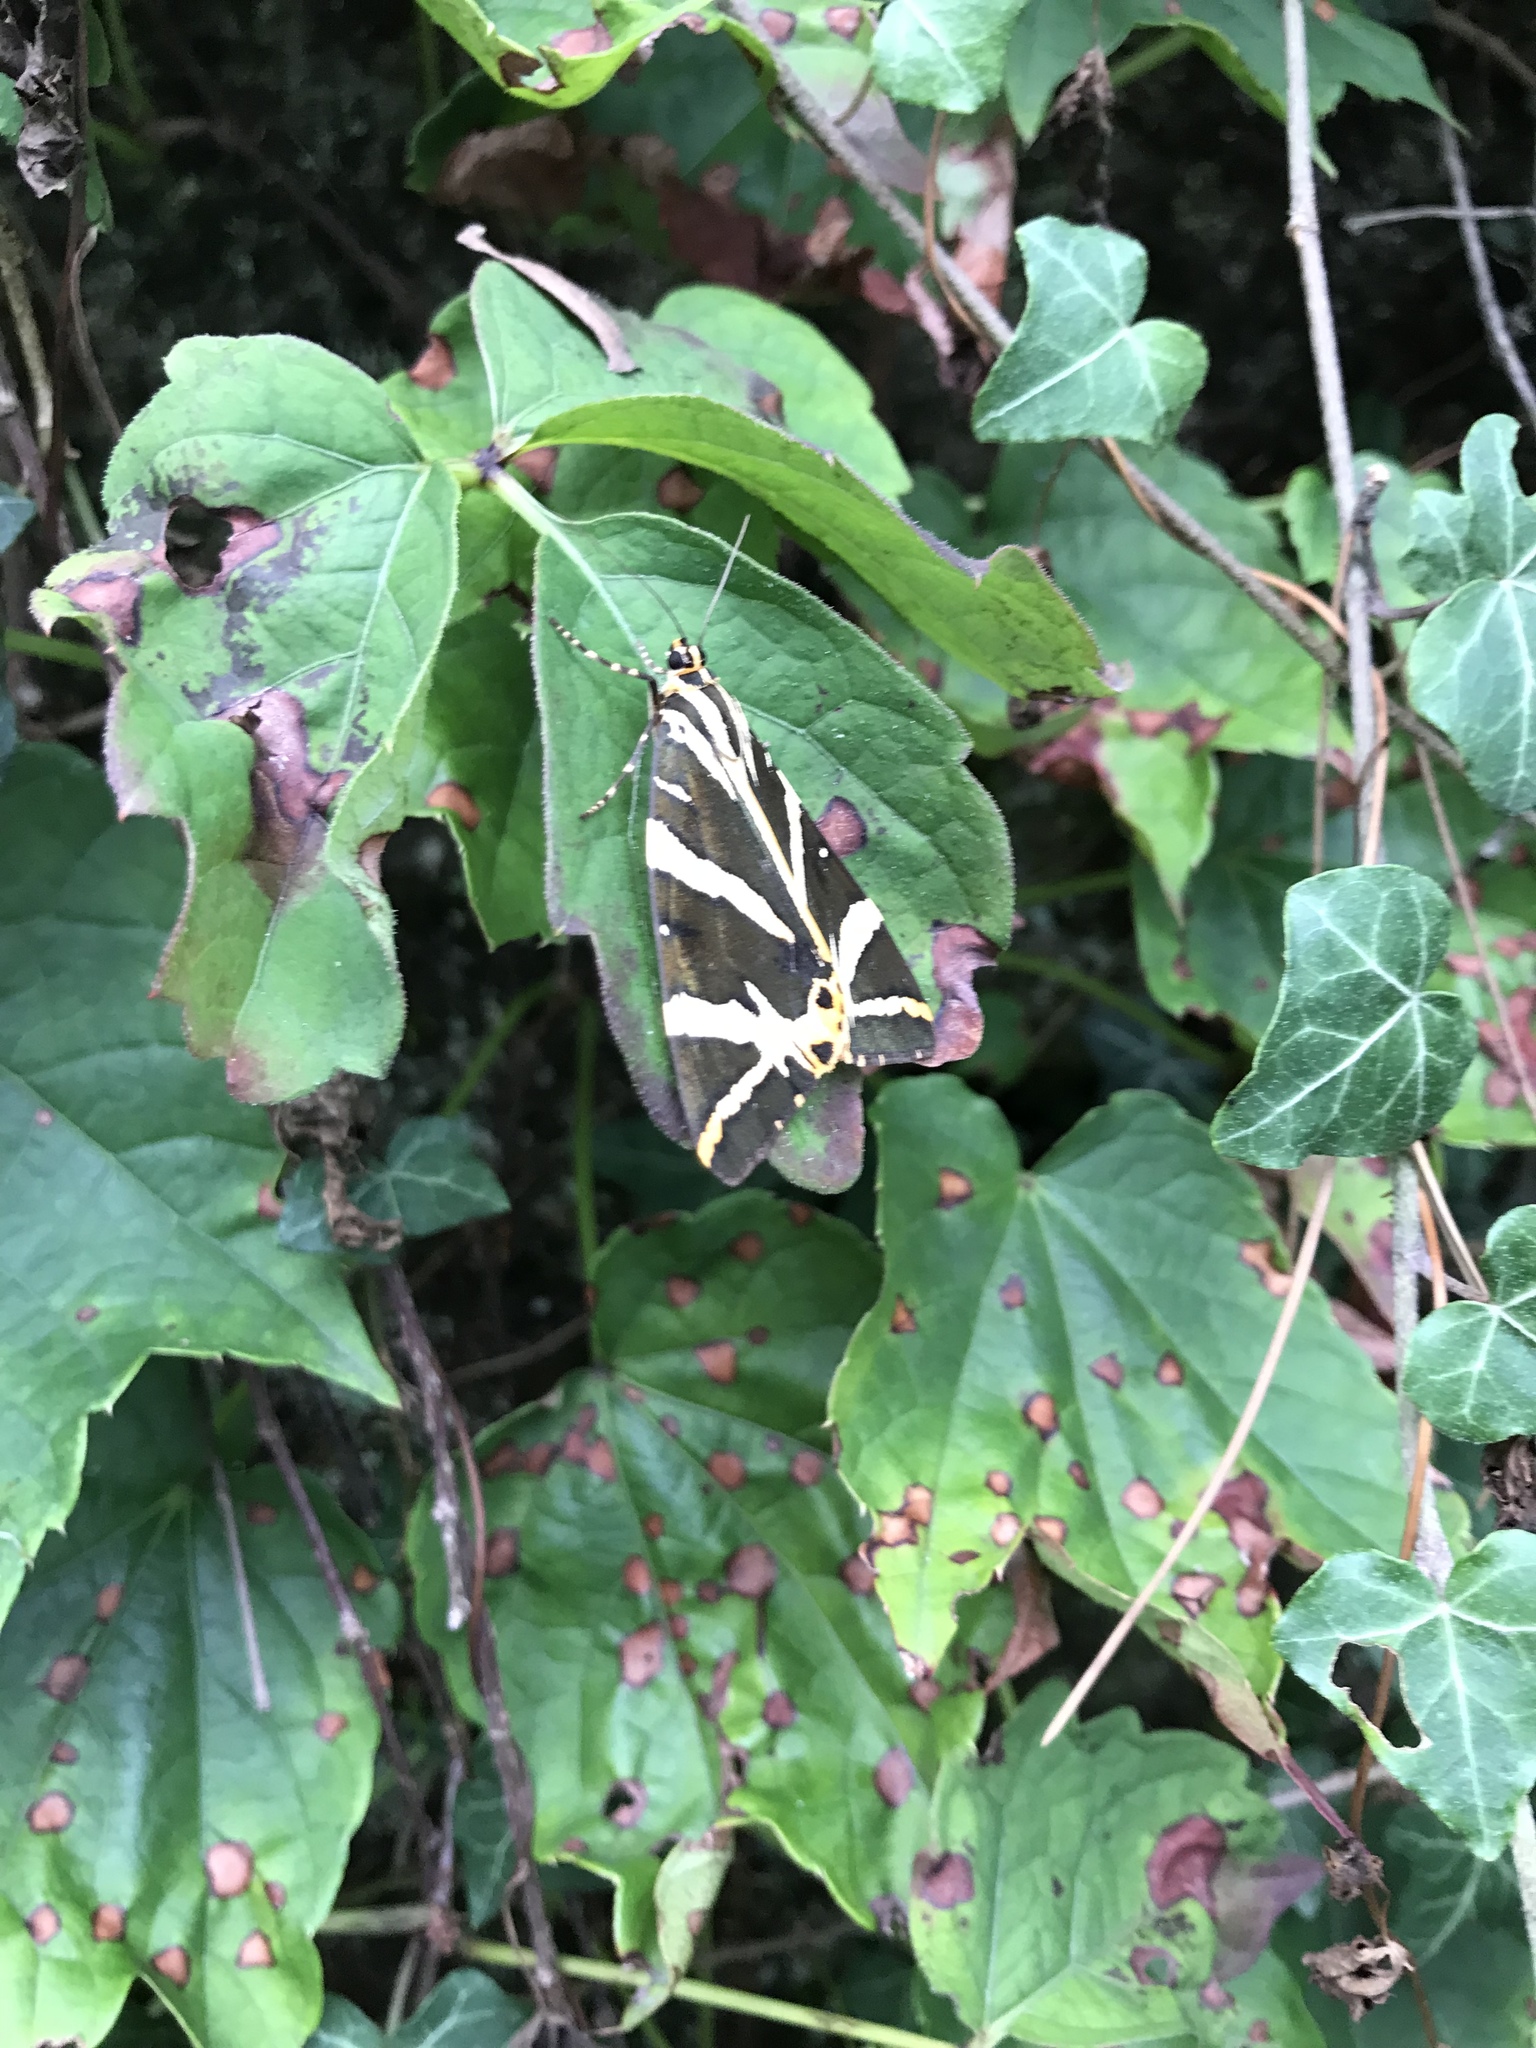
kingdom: Animalia
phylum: Arthropoda
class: Insecta
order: Lepidoptera
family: Erebidae
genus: Euplagia
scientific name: Euplagia quadripunctaria
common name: Jersey tiger
